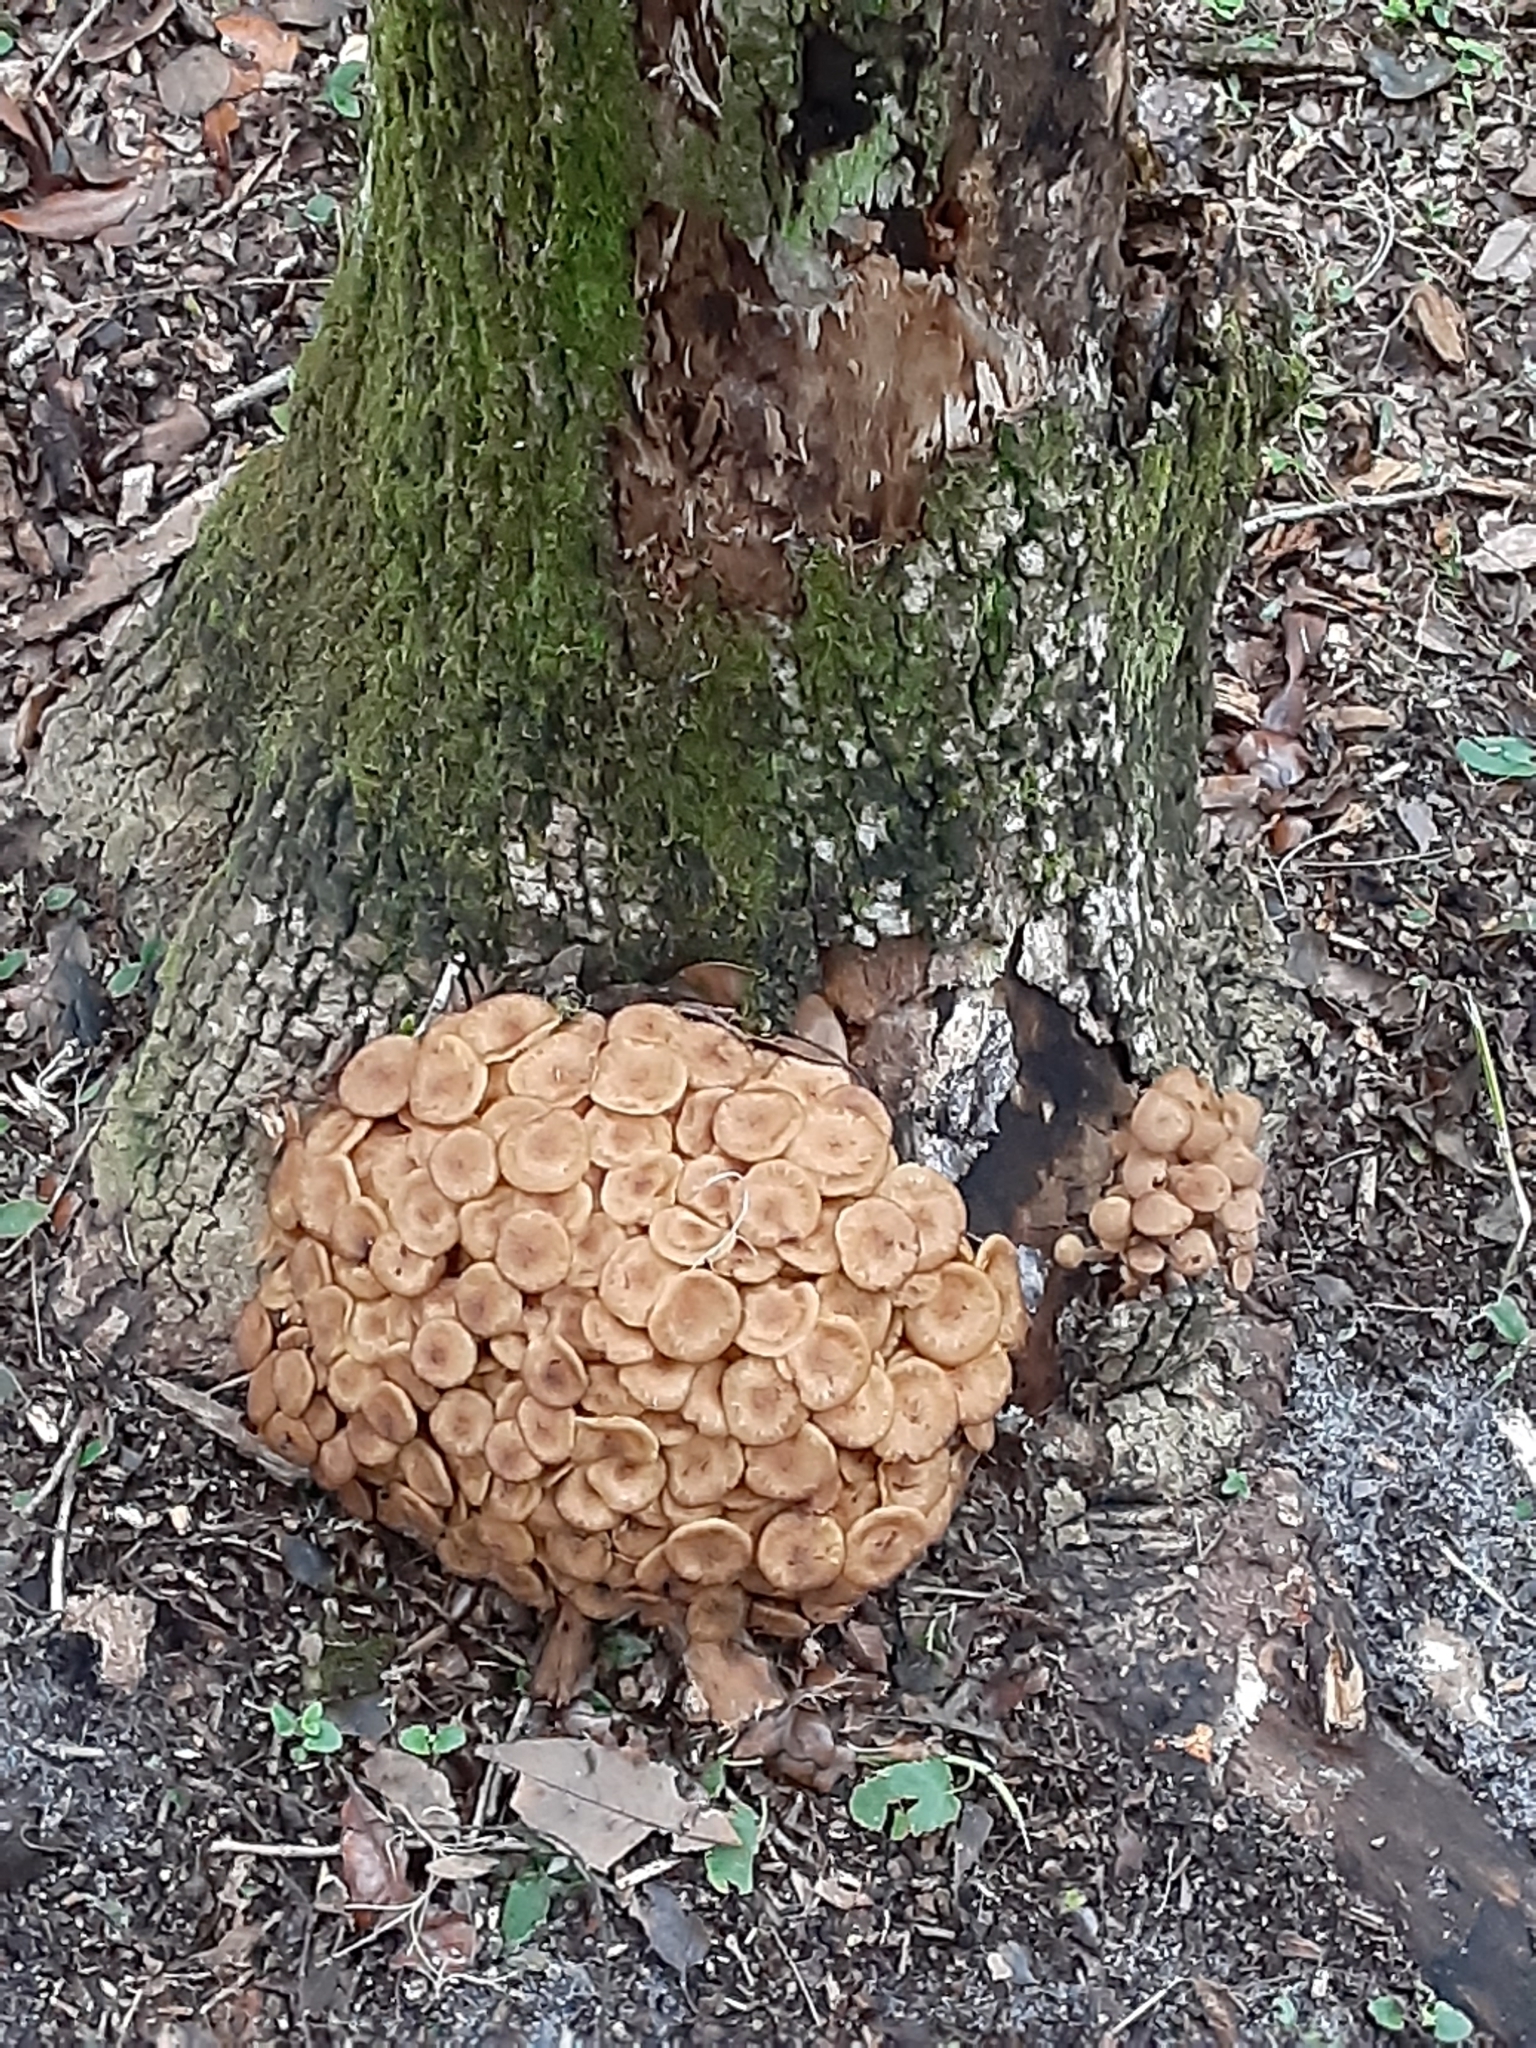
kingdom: Fungi
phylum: Basidiomycota
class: Agaricomycetes
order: Agaricales
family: Physalacriaceae
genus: Desarmillaria
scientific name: Desarmillaria caespitosa
